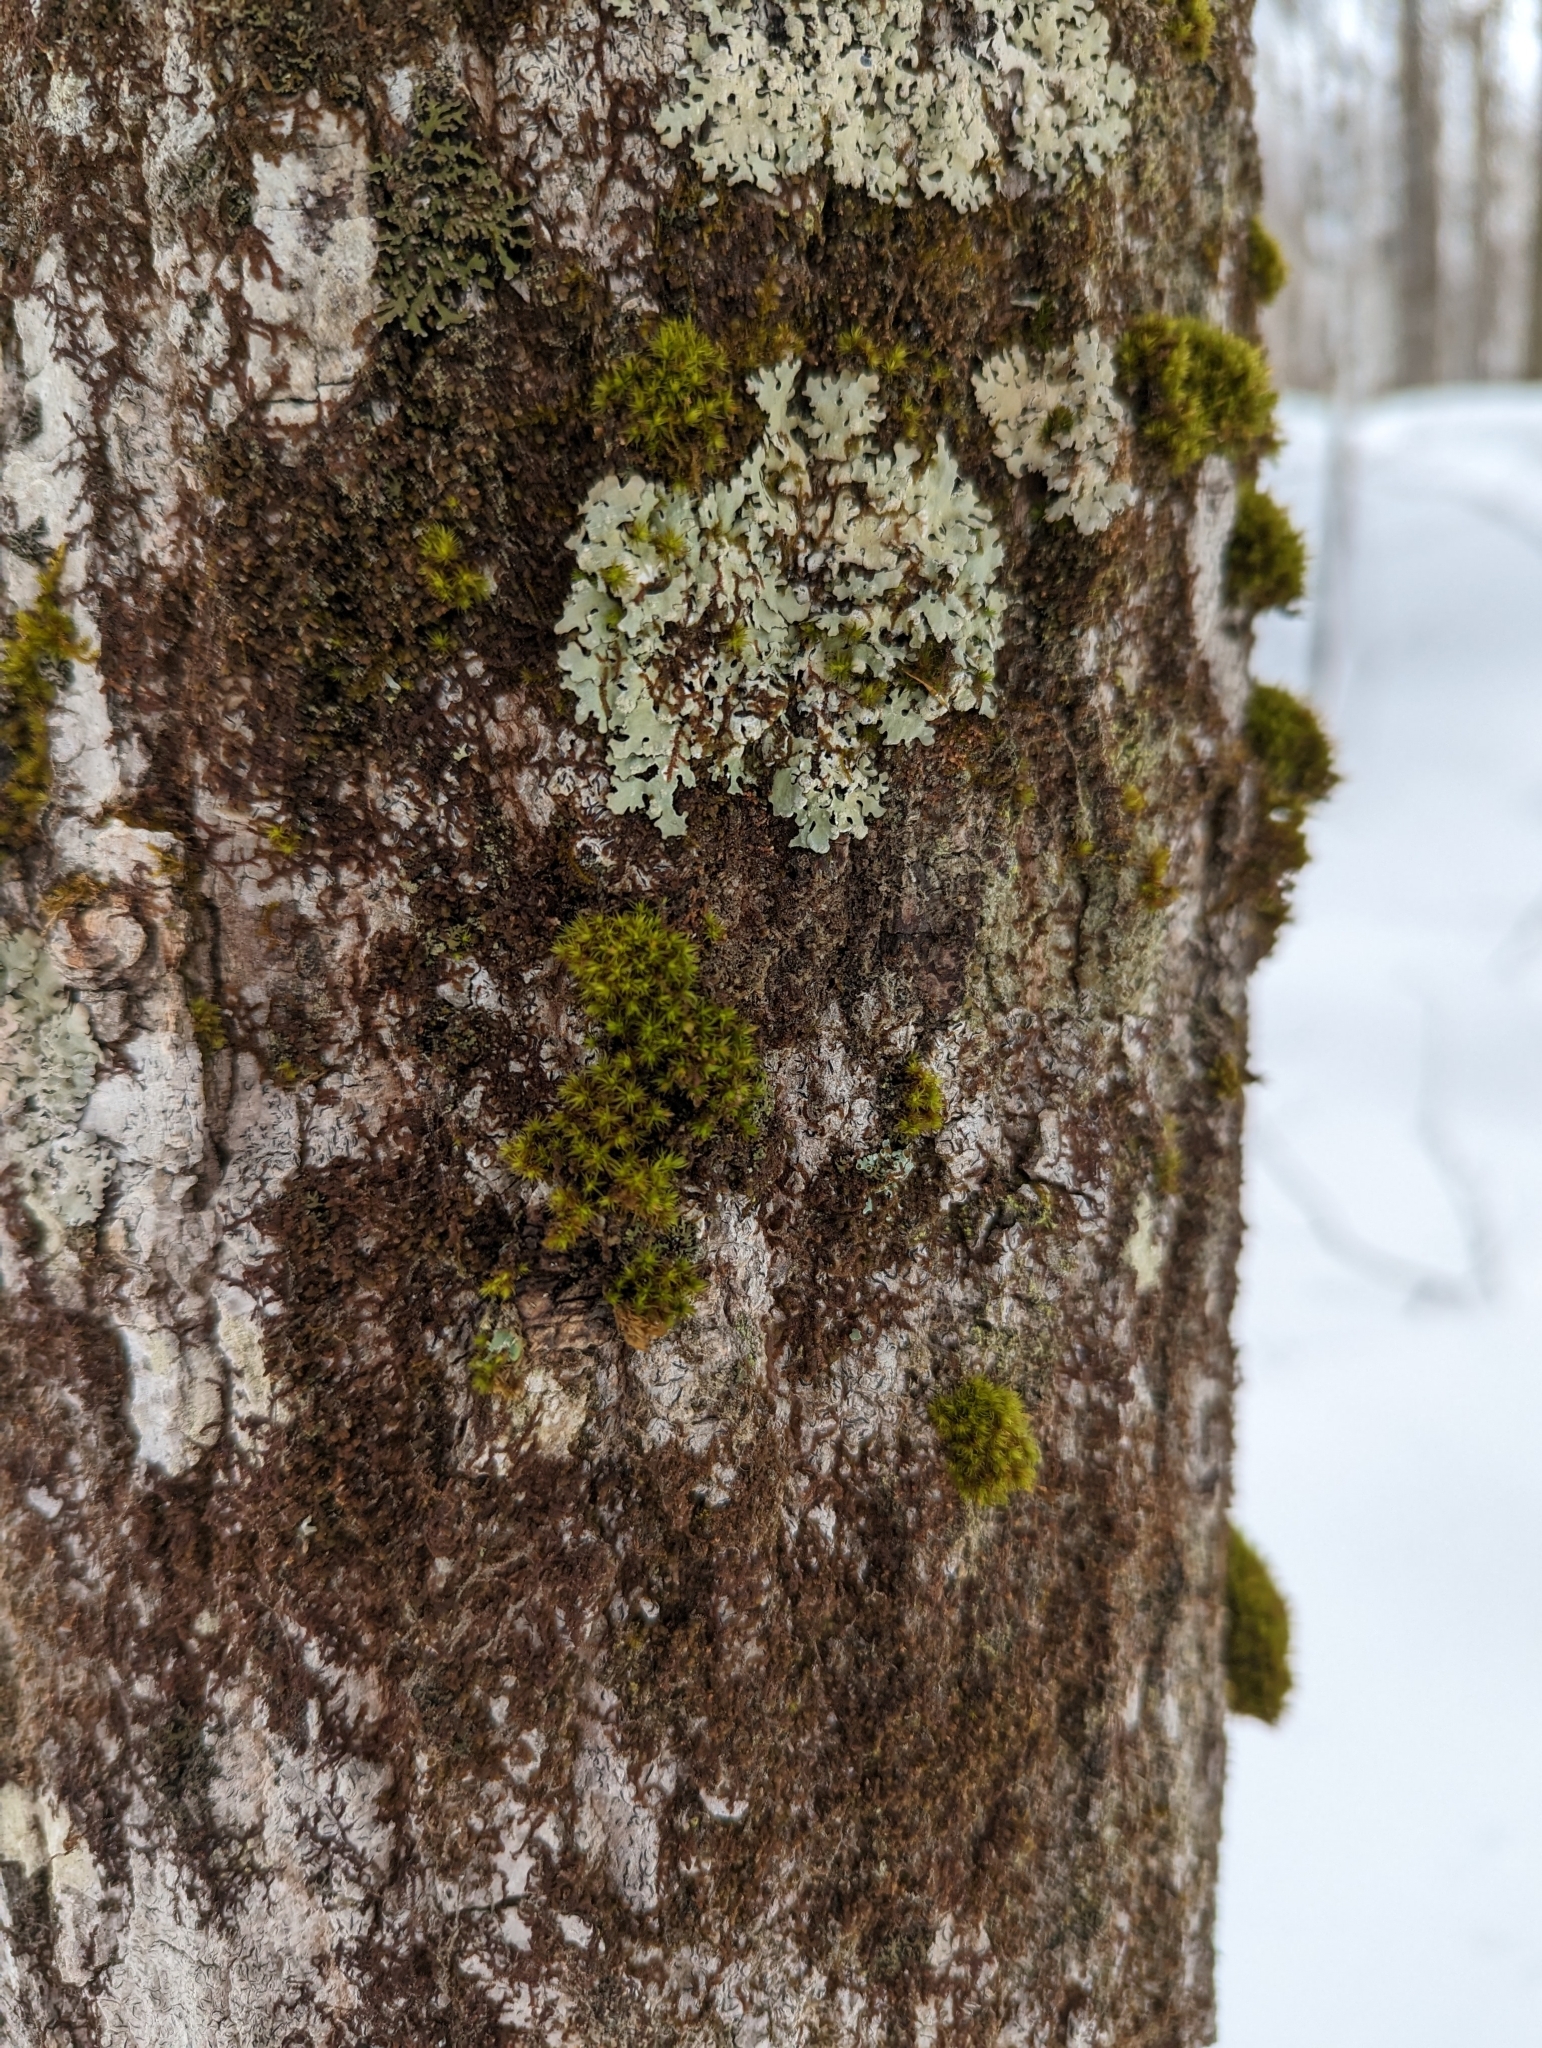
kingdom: Plantae
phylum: Marchantiophyta
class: Jungermanniopsida
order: Porellales
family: Frullaniaceae
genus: Frullania
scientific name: Frullania eboracensis
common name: New york scalewort
